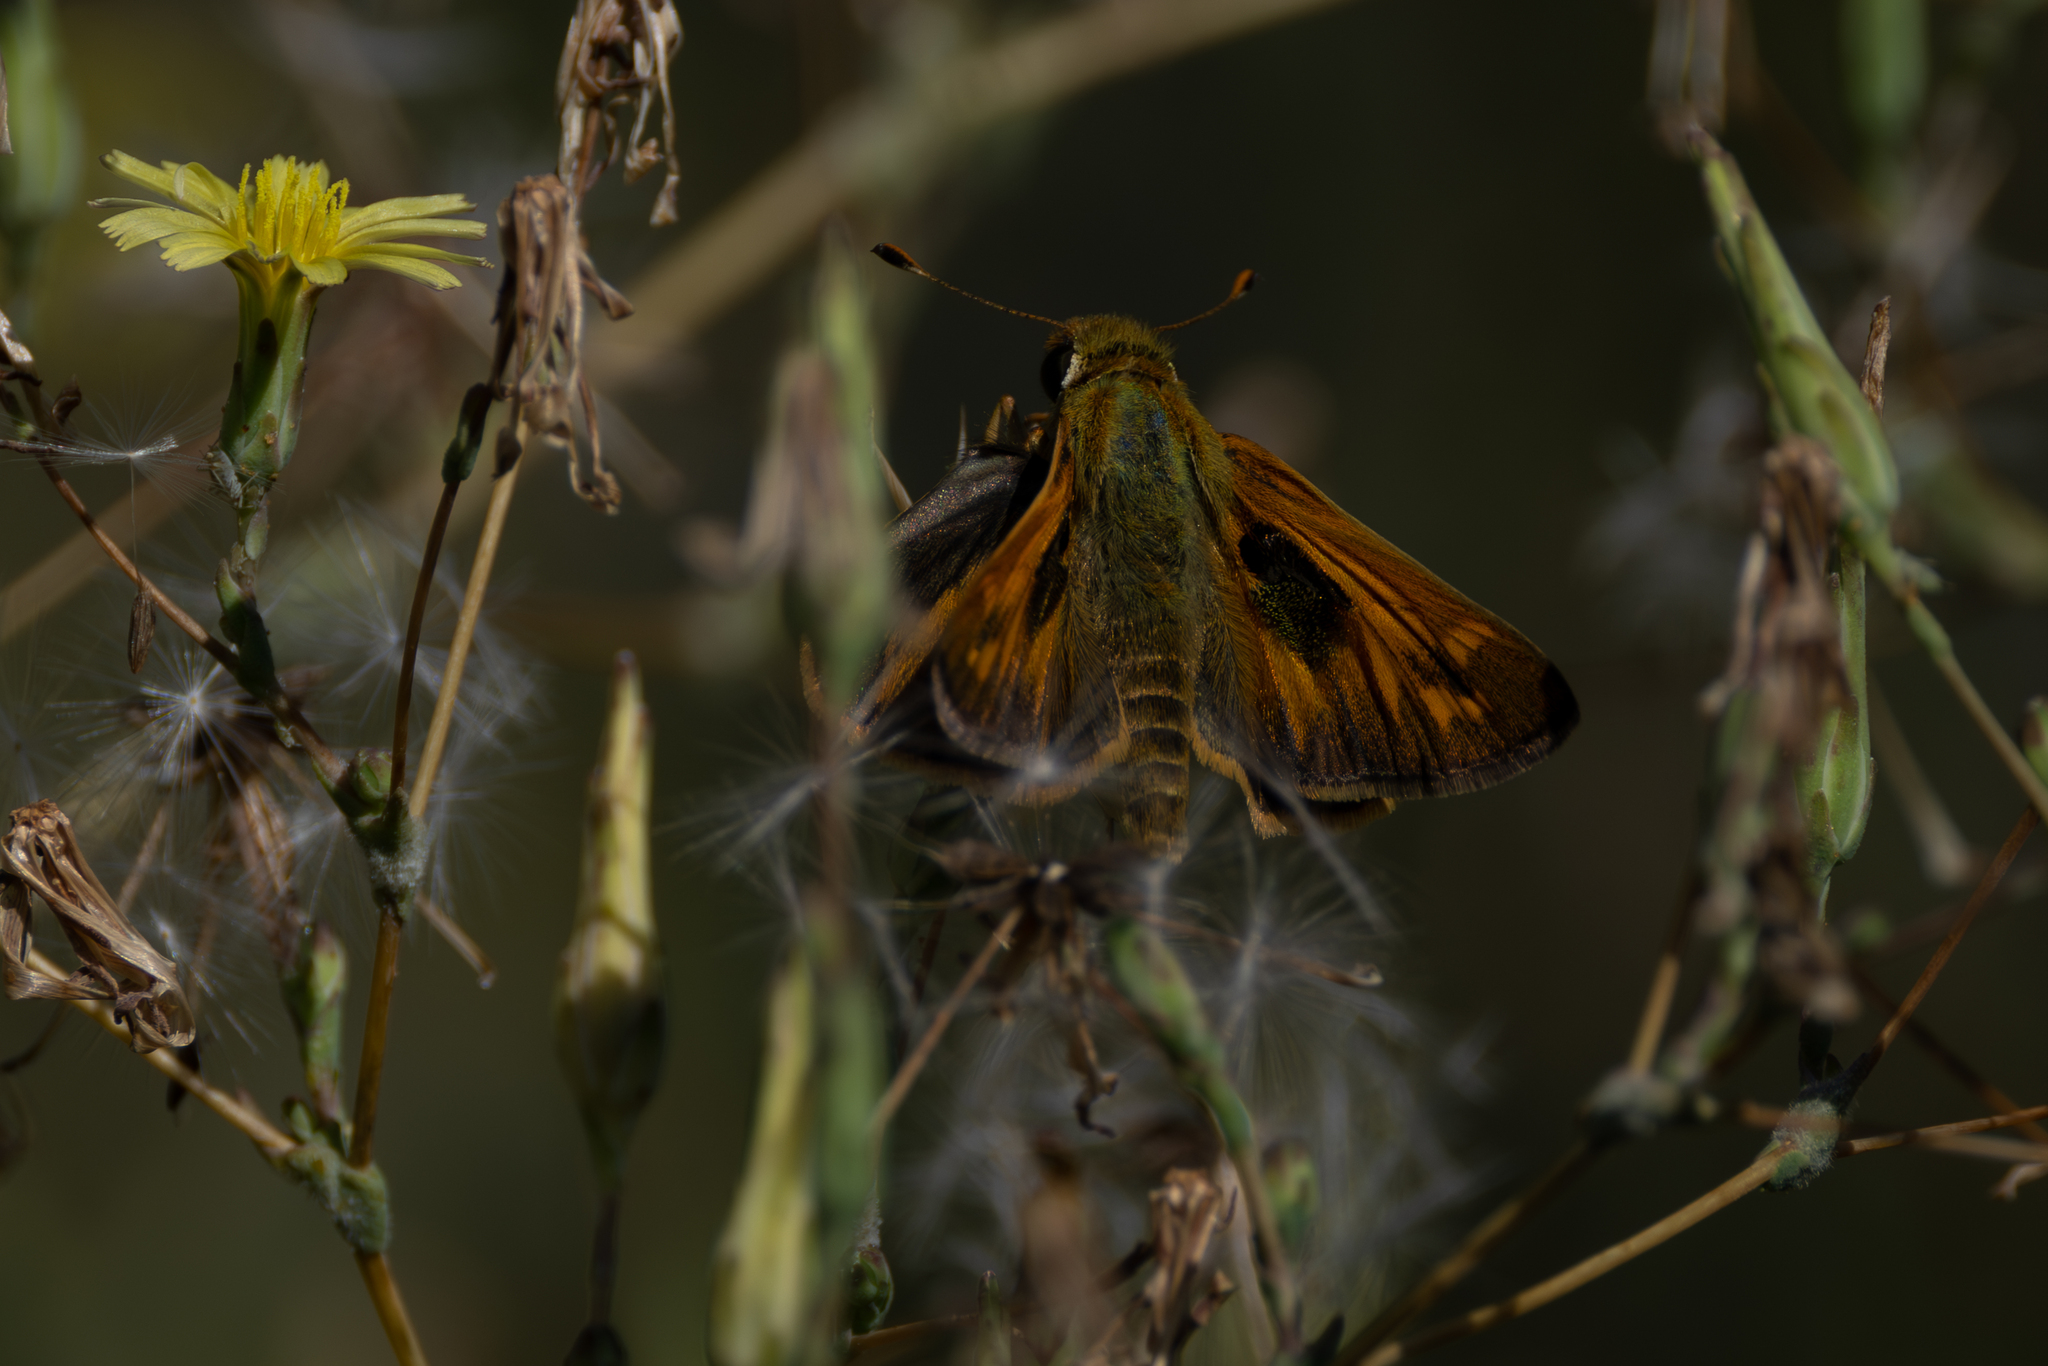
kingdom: Animalia
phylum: Arthropoda
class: Insecta
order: Lepidoptera
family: Hesperiidae
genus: Atalopedes
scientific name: Atalopedes
